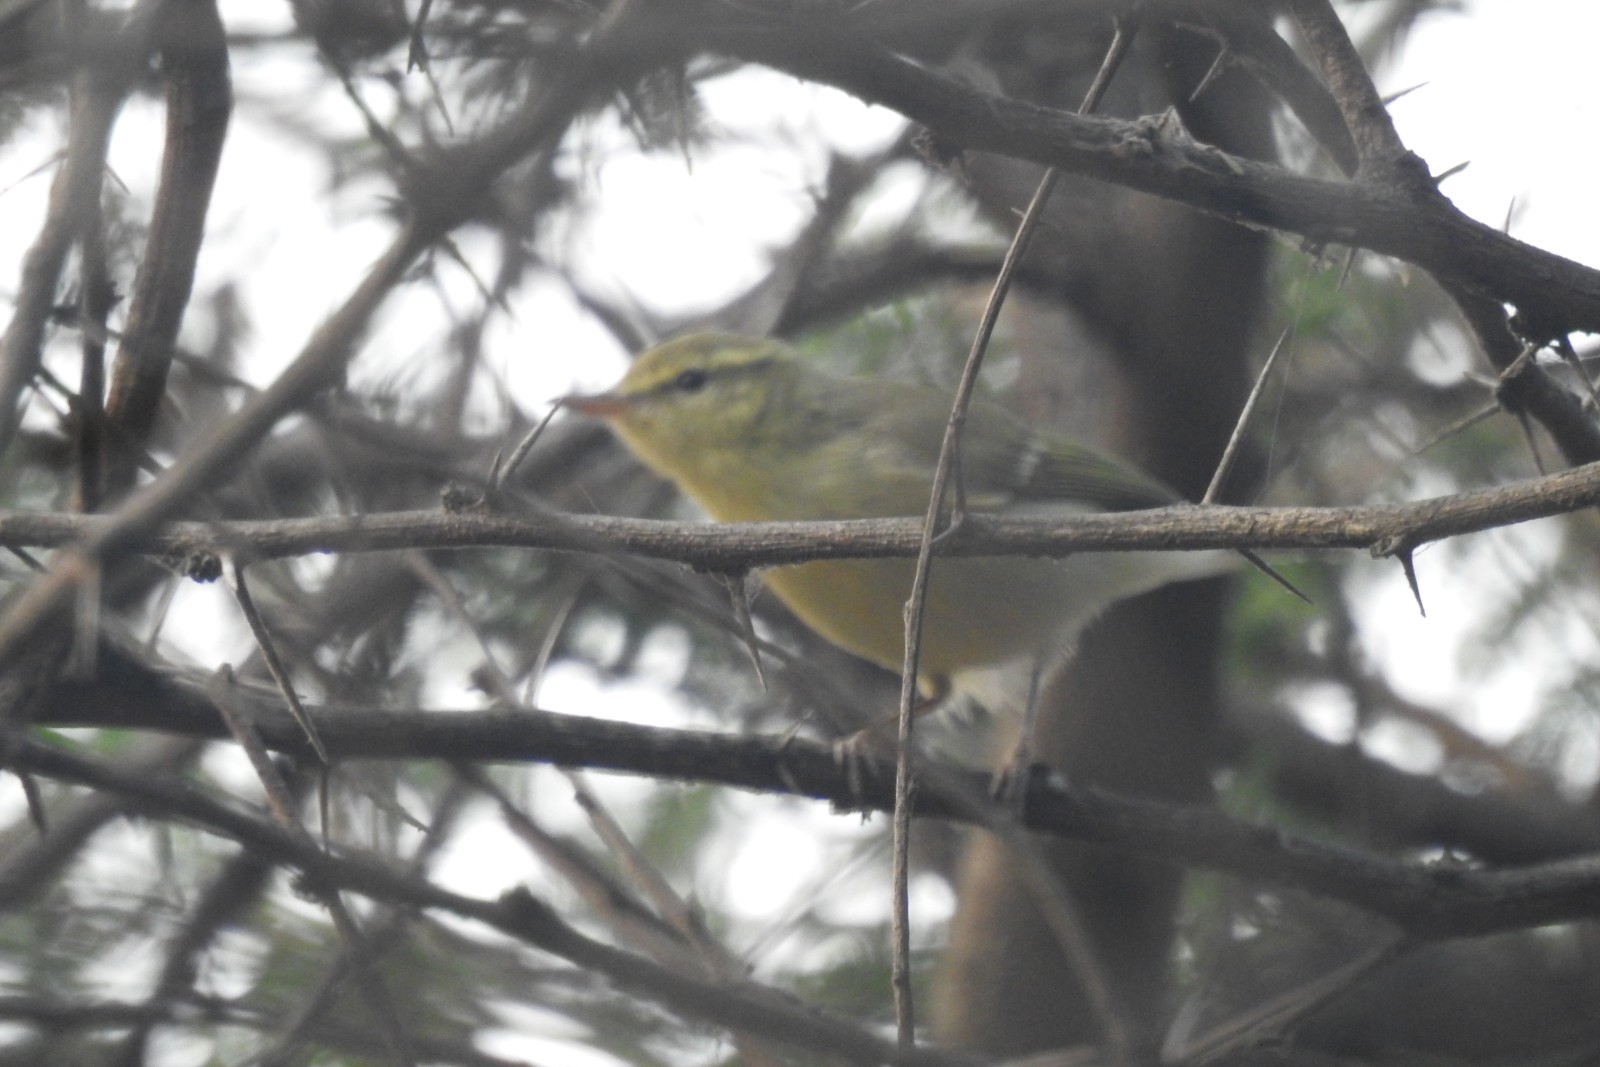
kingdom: Animalia
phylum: Chordata
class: Aves
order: Passeriformes
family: Phylloscopidae
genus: Phylloscopus
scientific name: Phylloscopus trochiloides
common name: Greenish warbler
